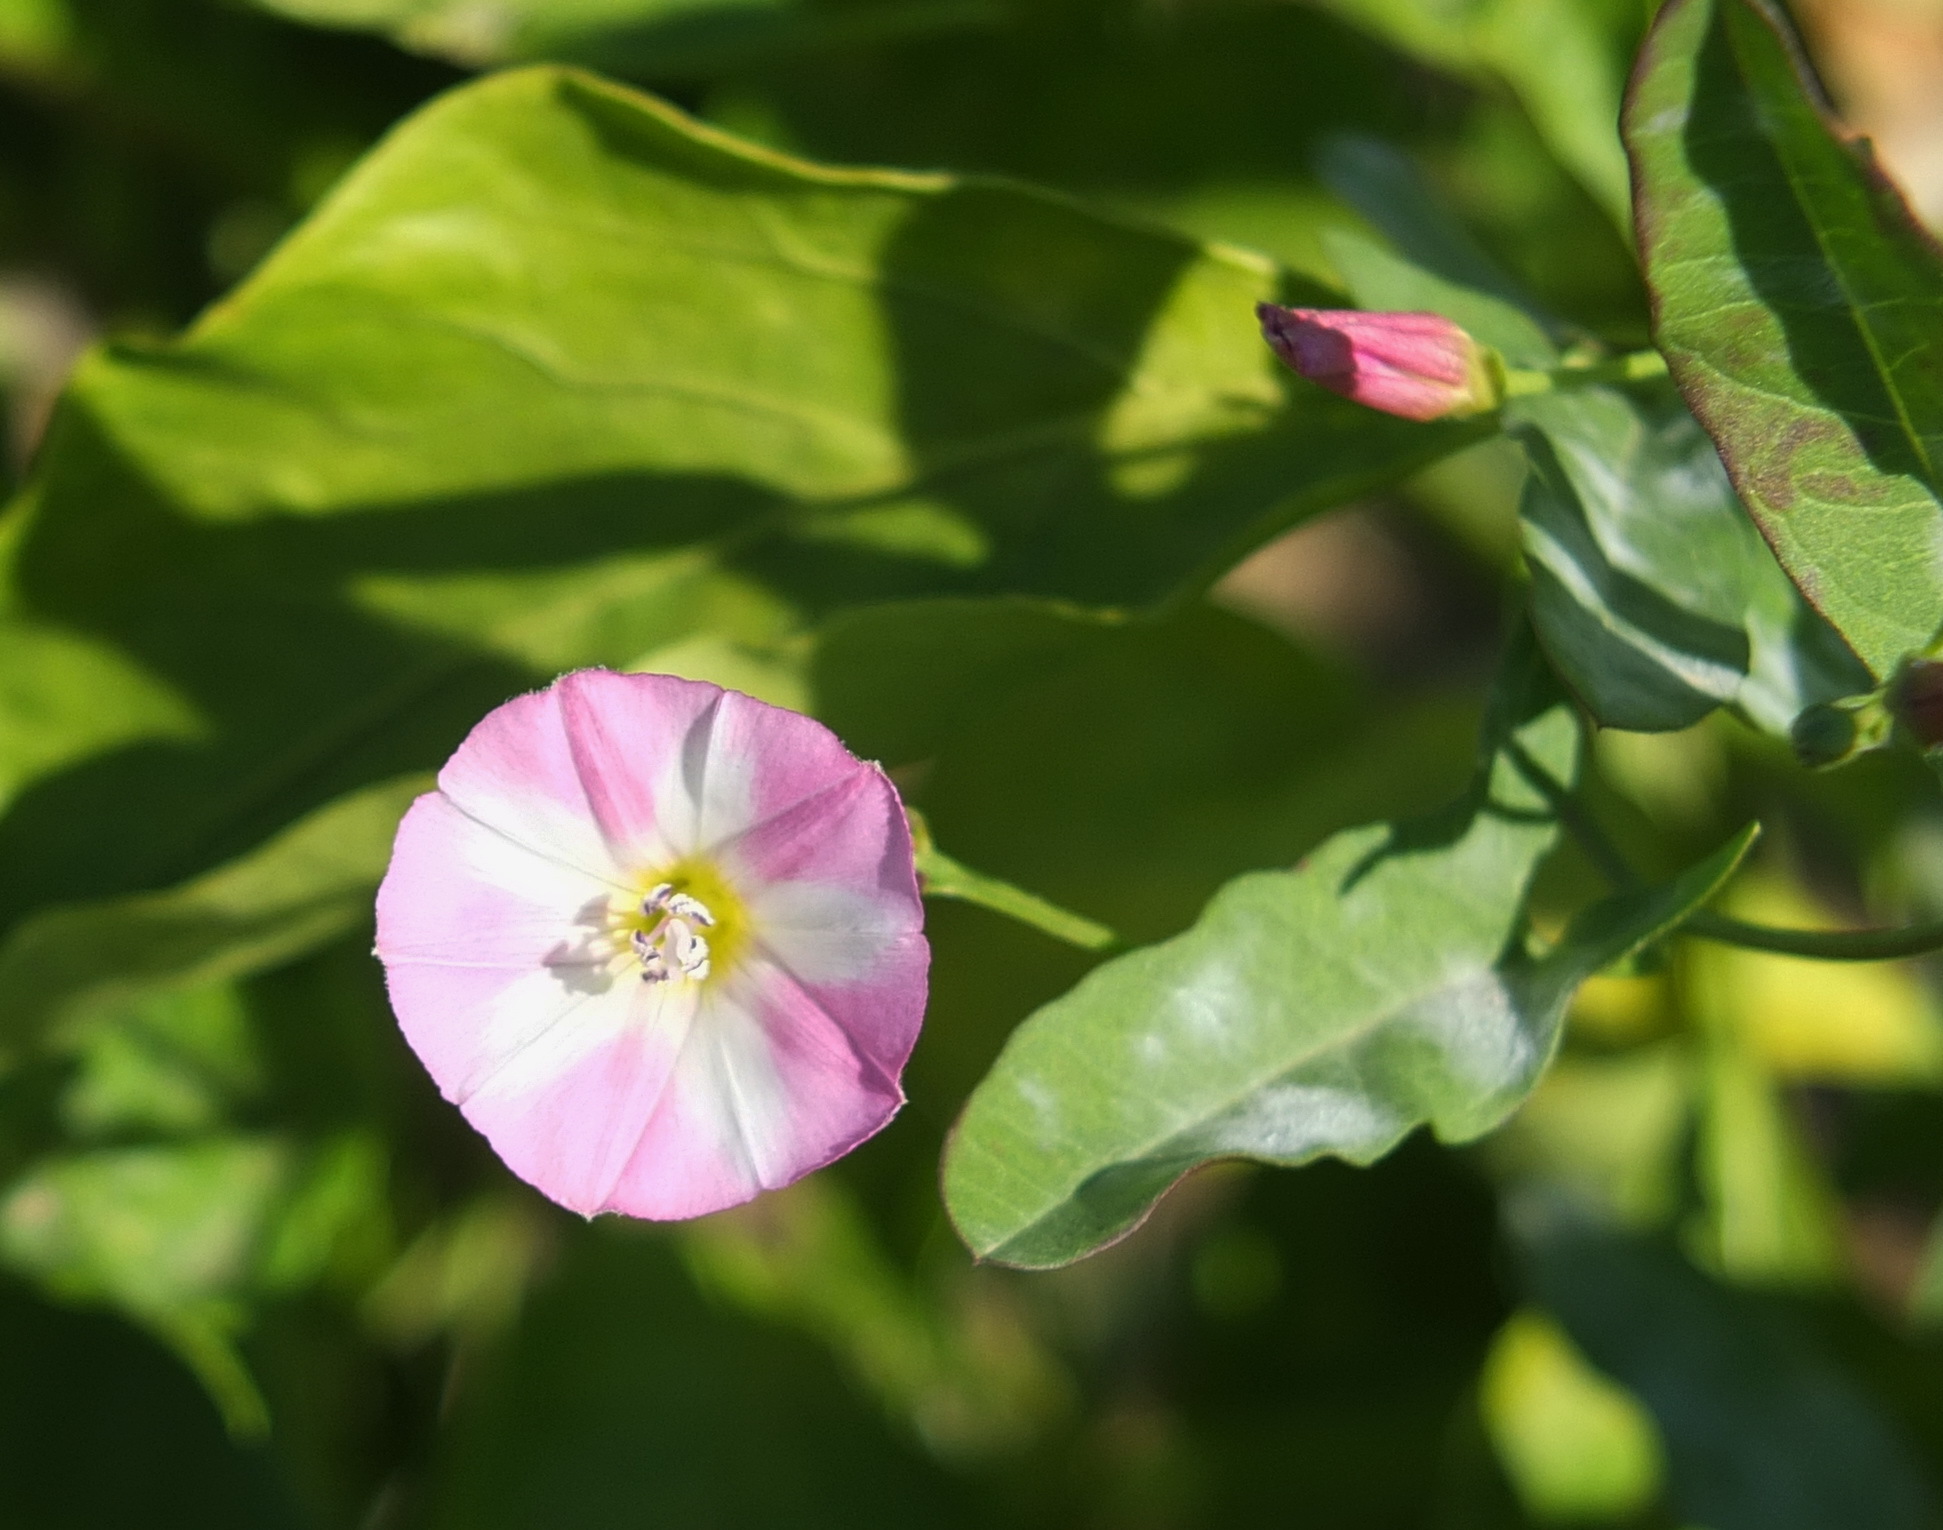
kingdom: Plantae
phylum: Tracheophyta
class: Magnoliopsida
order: Solanales
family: Convolvulaceae
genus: Convolvulus
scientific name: Convolvulus arvensis
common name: Field bindweed
